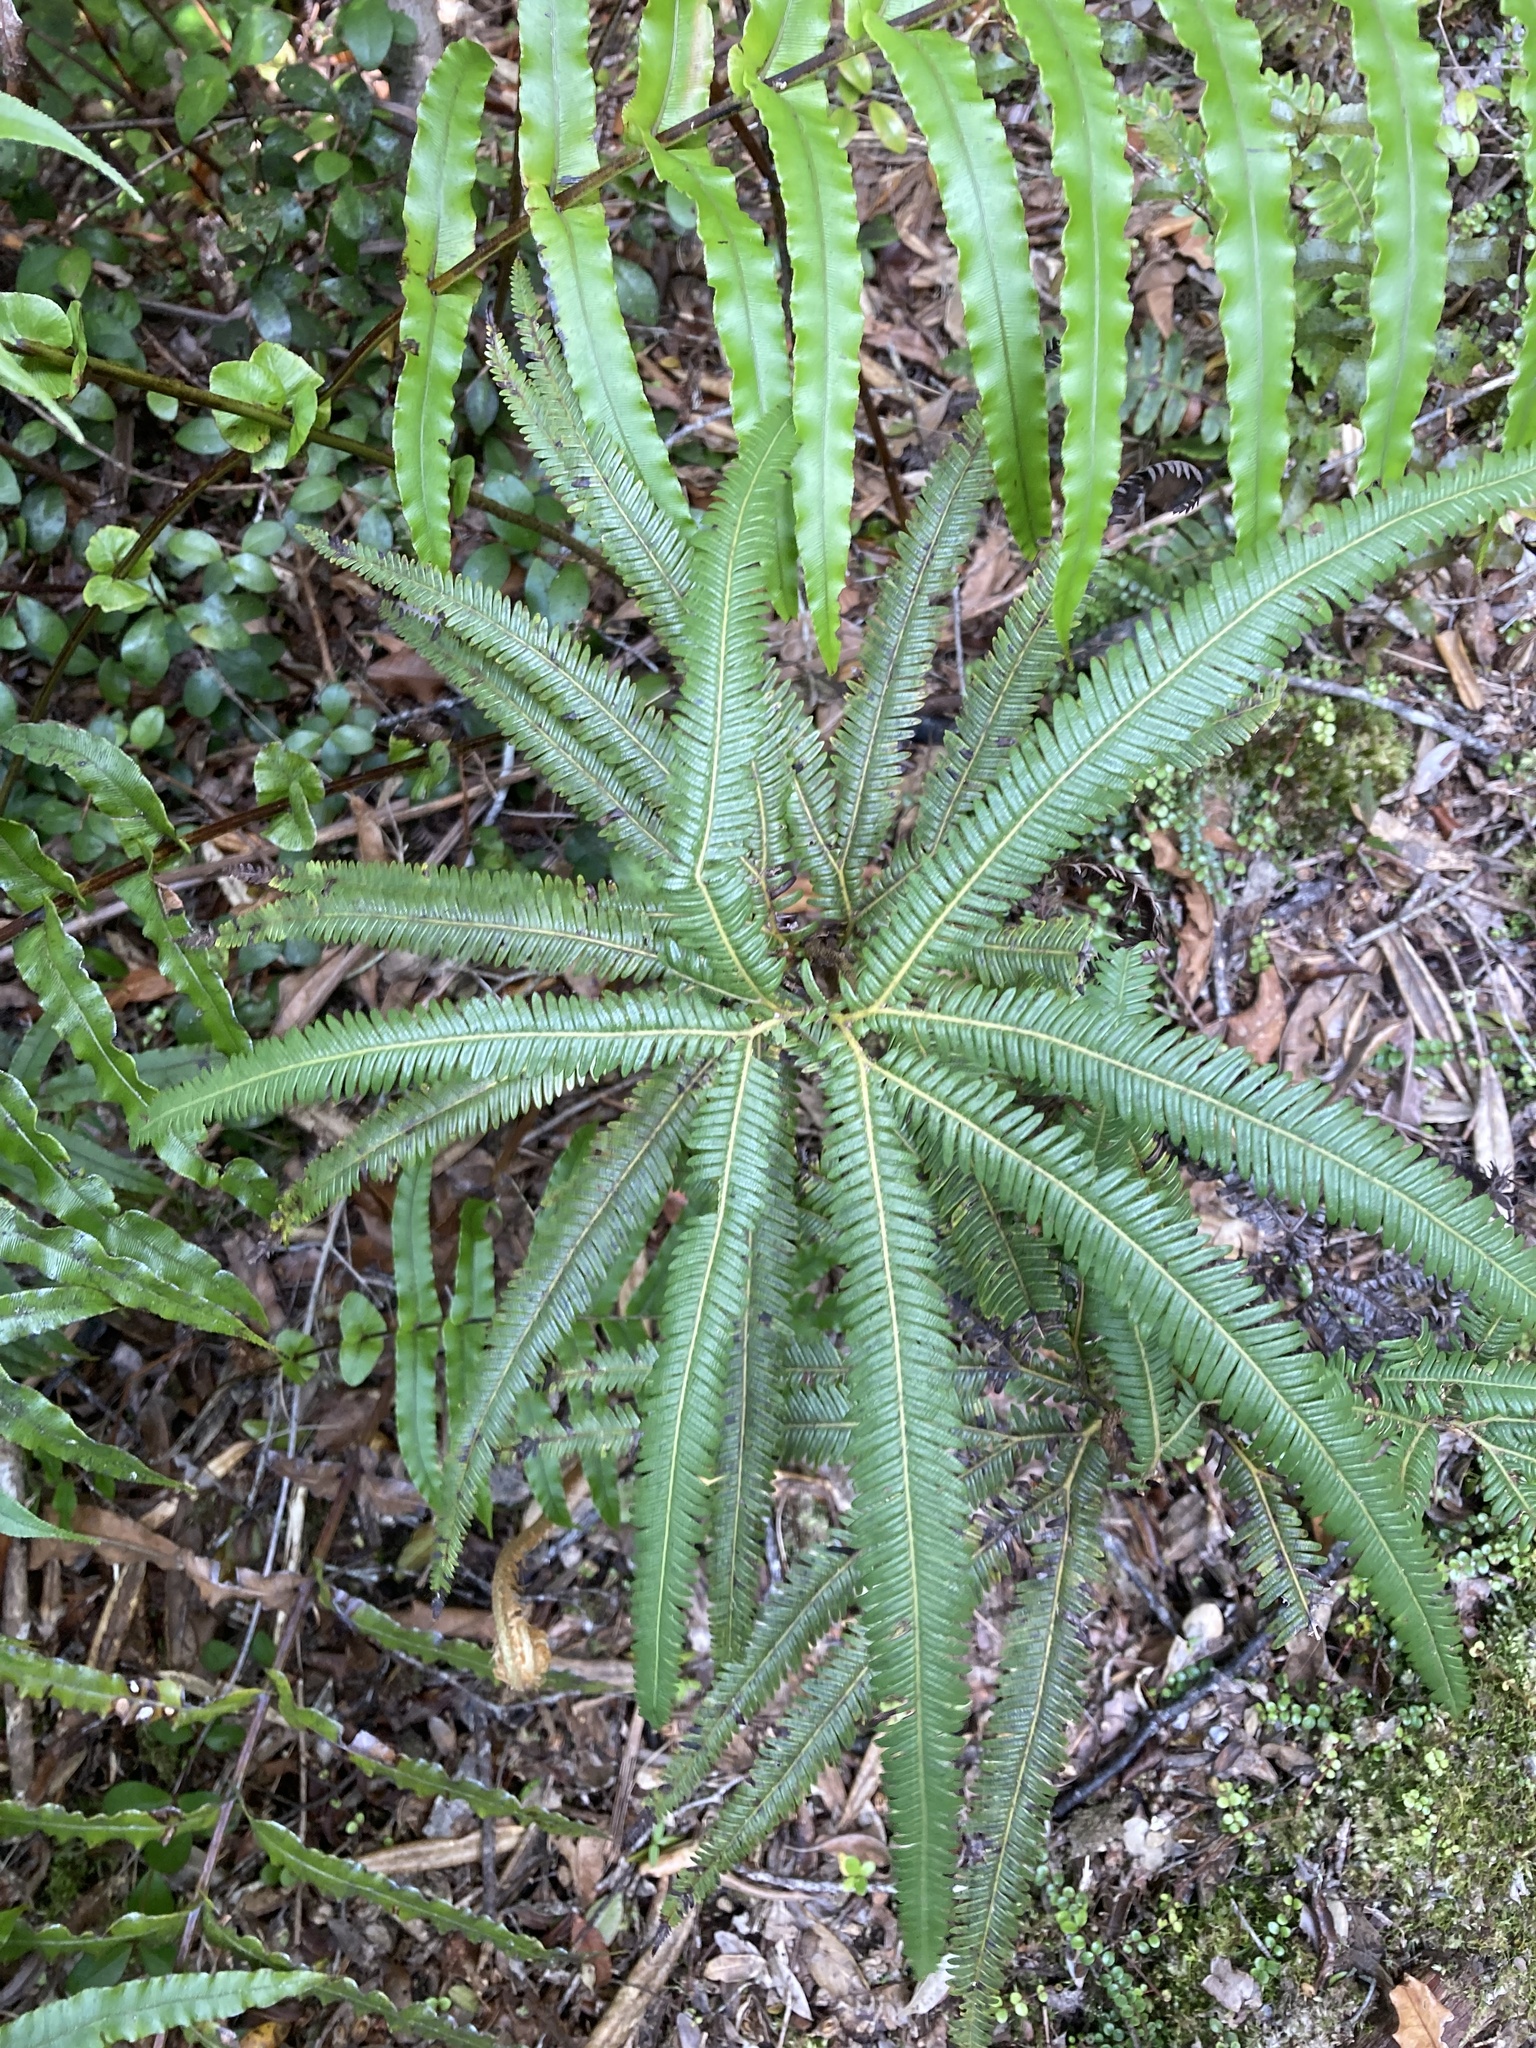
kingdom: Plantae
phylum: Tracheophyta
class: Polypodiopsida
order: Gleicheniales
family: Gleicheniaceae
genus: Sticherus
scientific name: Sticherus cunninghamii
